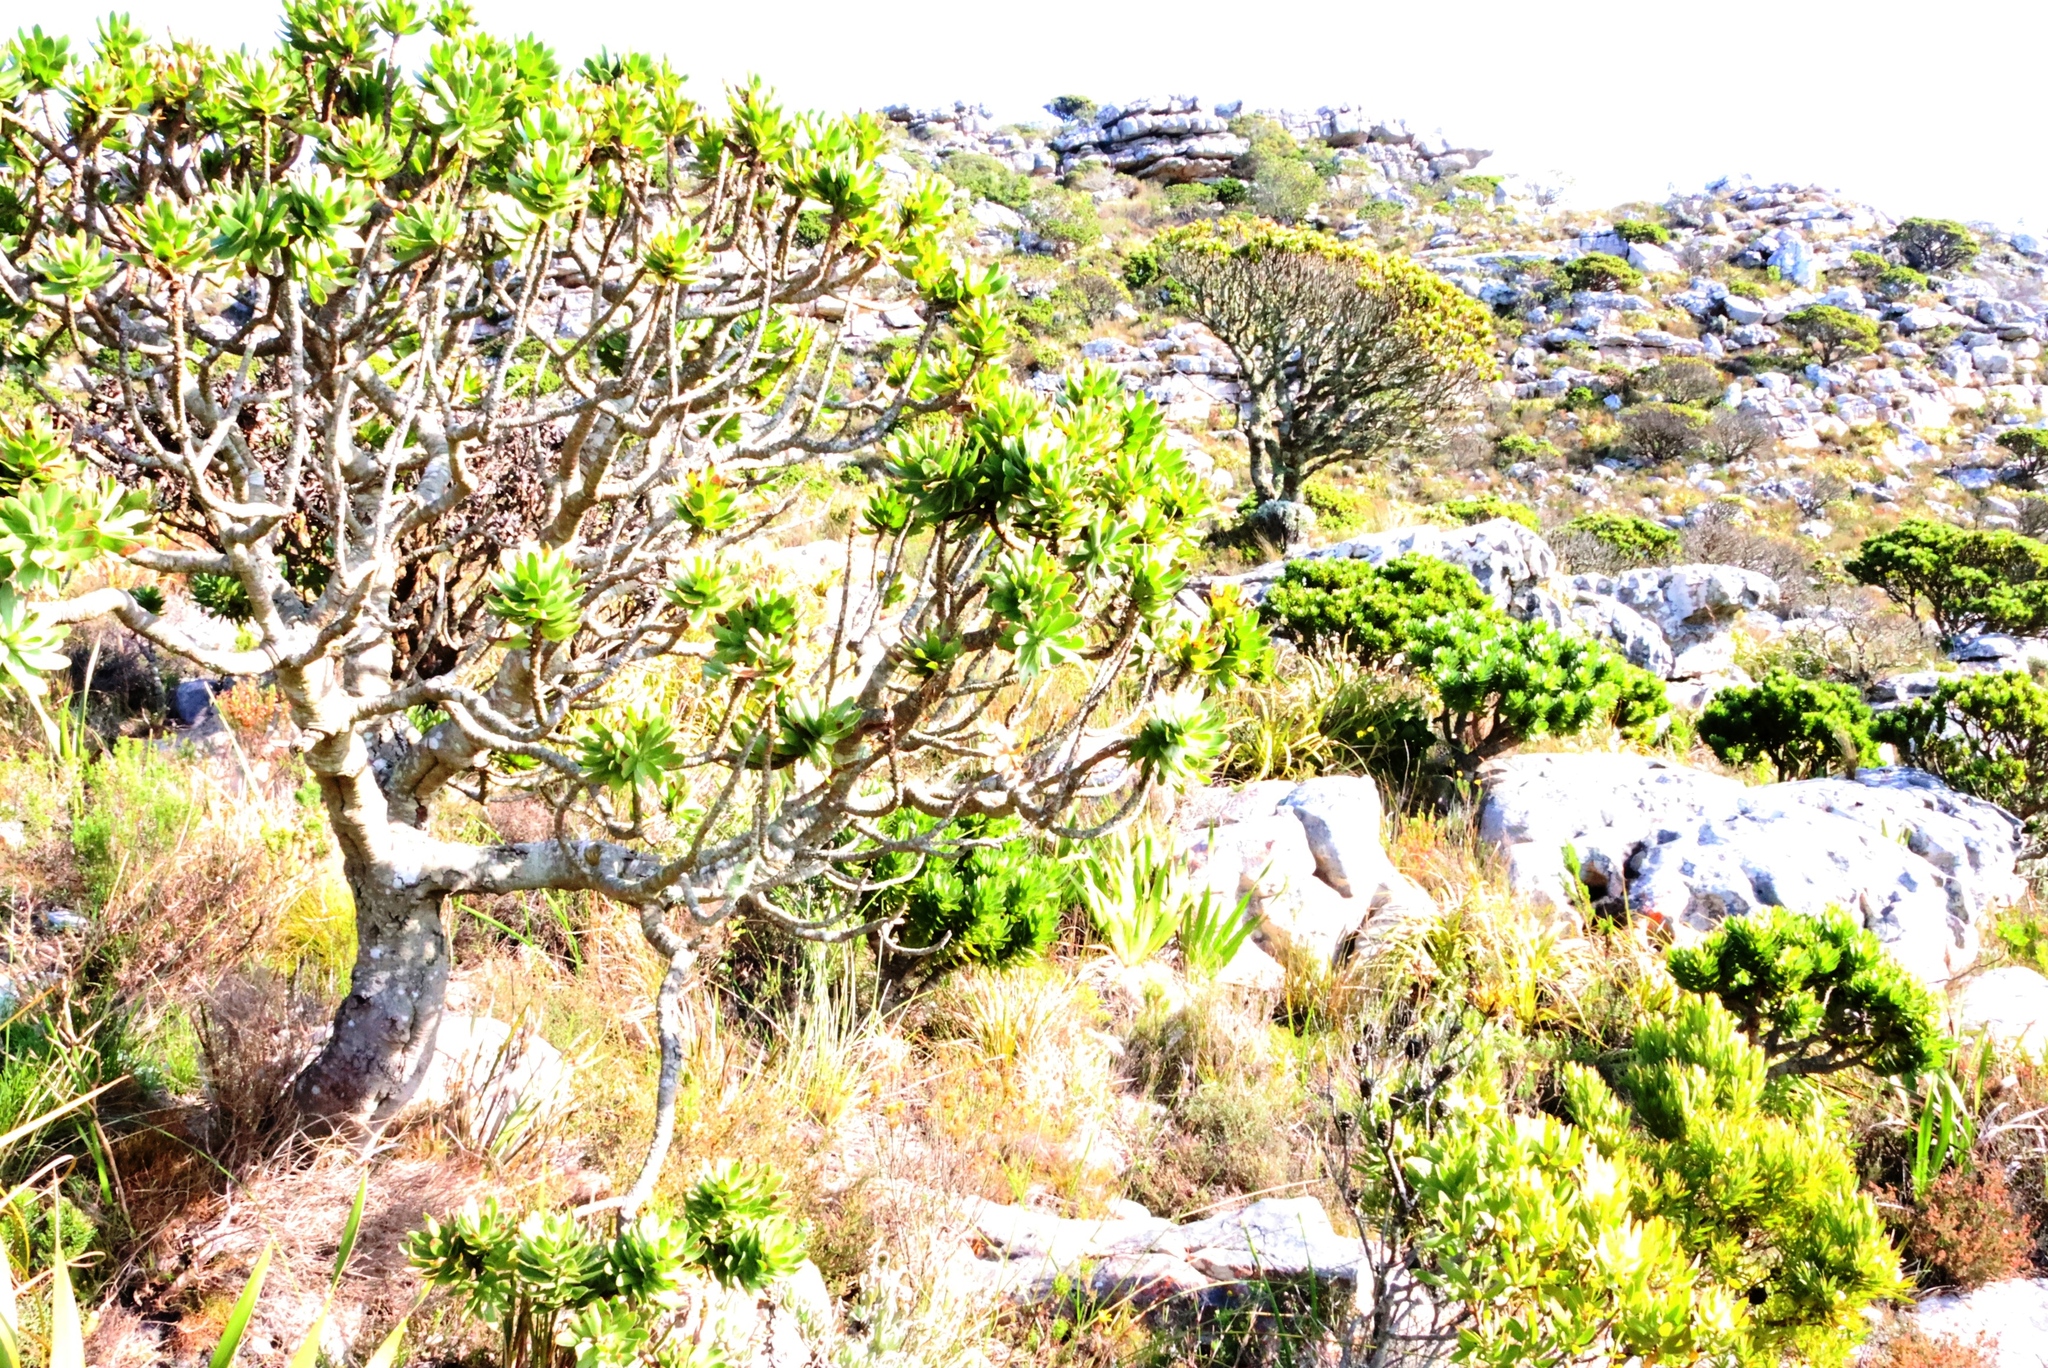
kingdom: Plantae
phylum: Tracheophyta
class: Magnoliopsida
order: Proteales
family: Proteaceae
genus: Mimetes
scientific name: Mimetes fimbriifolius
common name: Fringed bottlebrush
